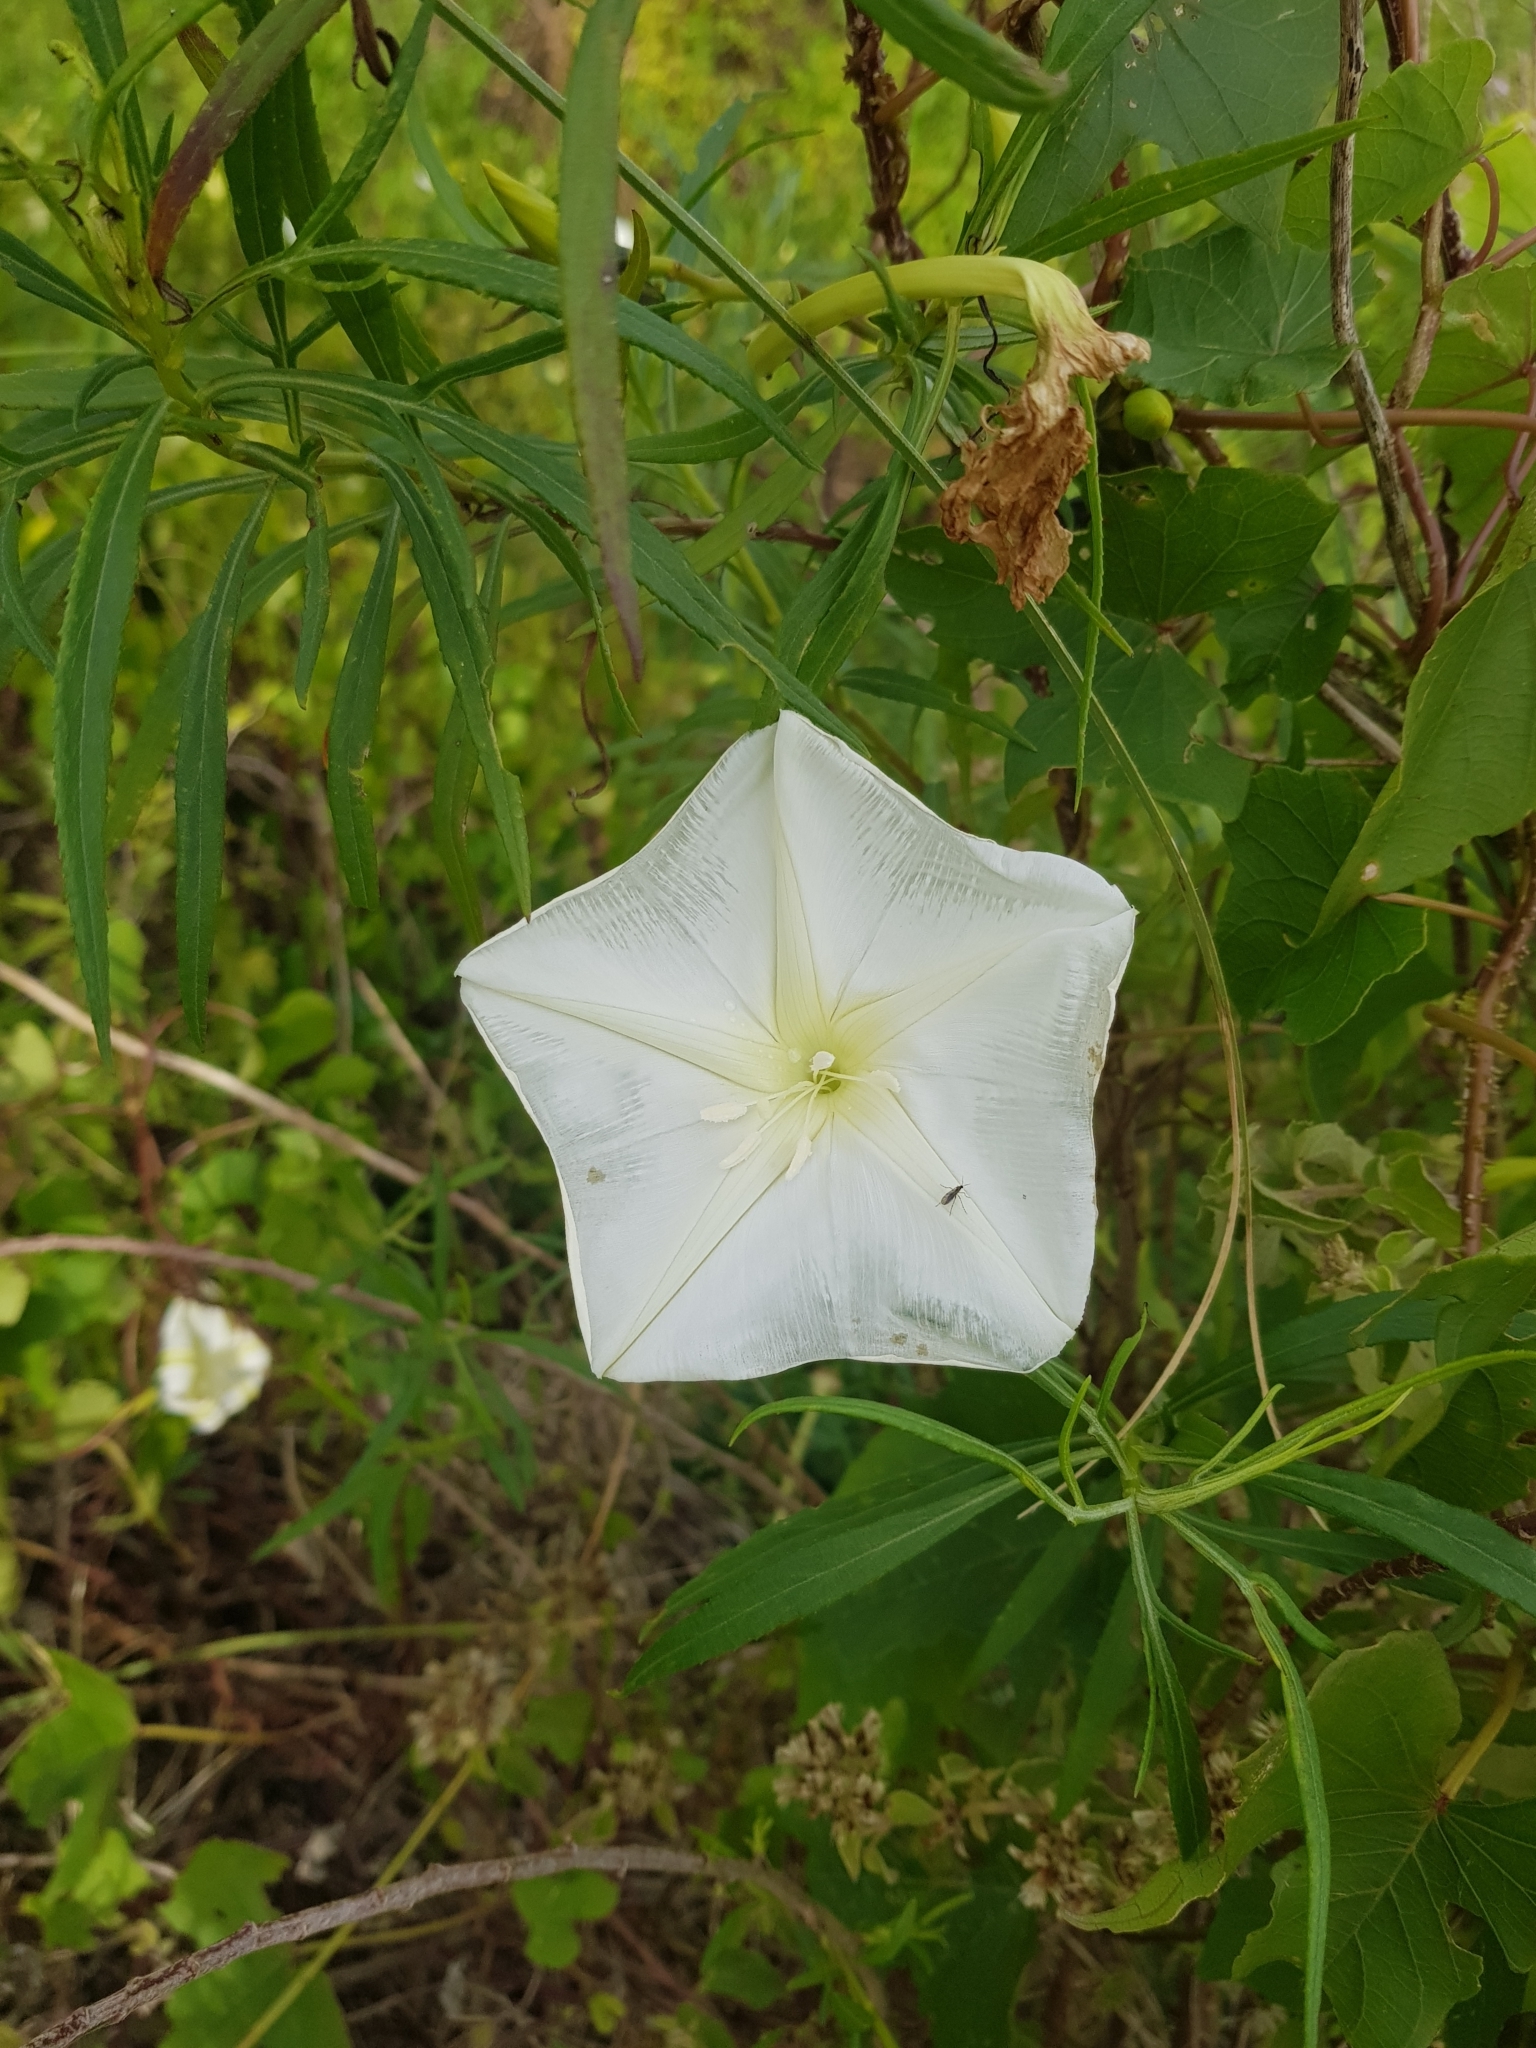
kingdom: Plantae
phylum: Tracheophyta
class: Magnoliopsida
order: Solanales
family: Convolvulaceae
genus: Ipomoea
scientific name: Ipomoea alba
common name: Moonflower
